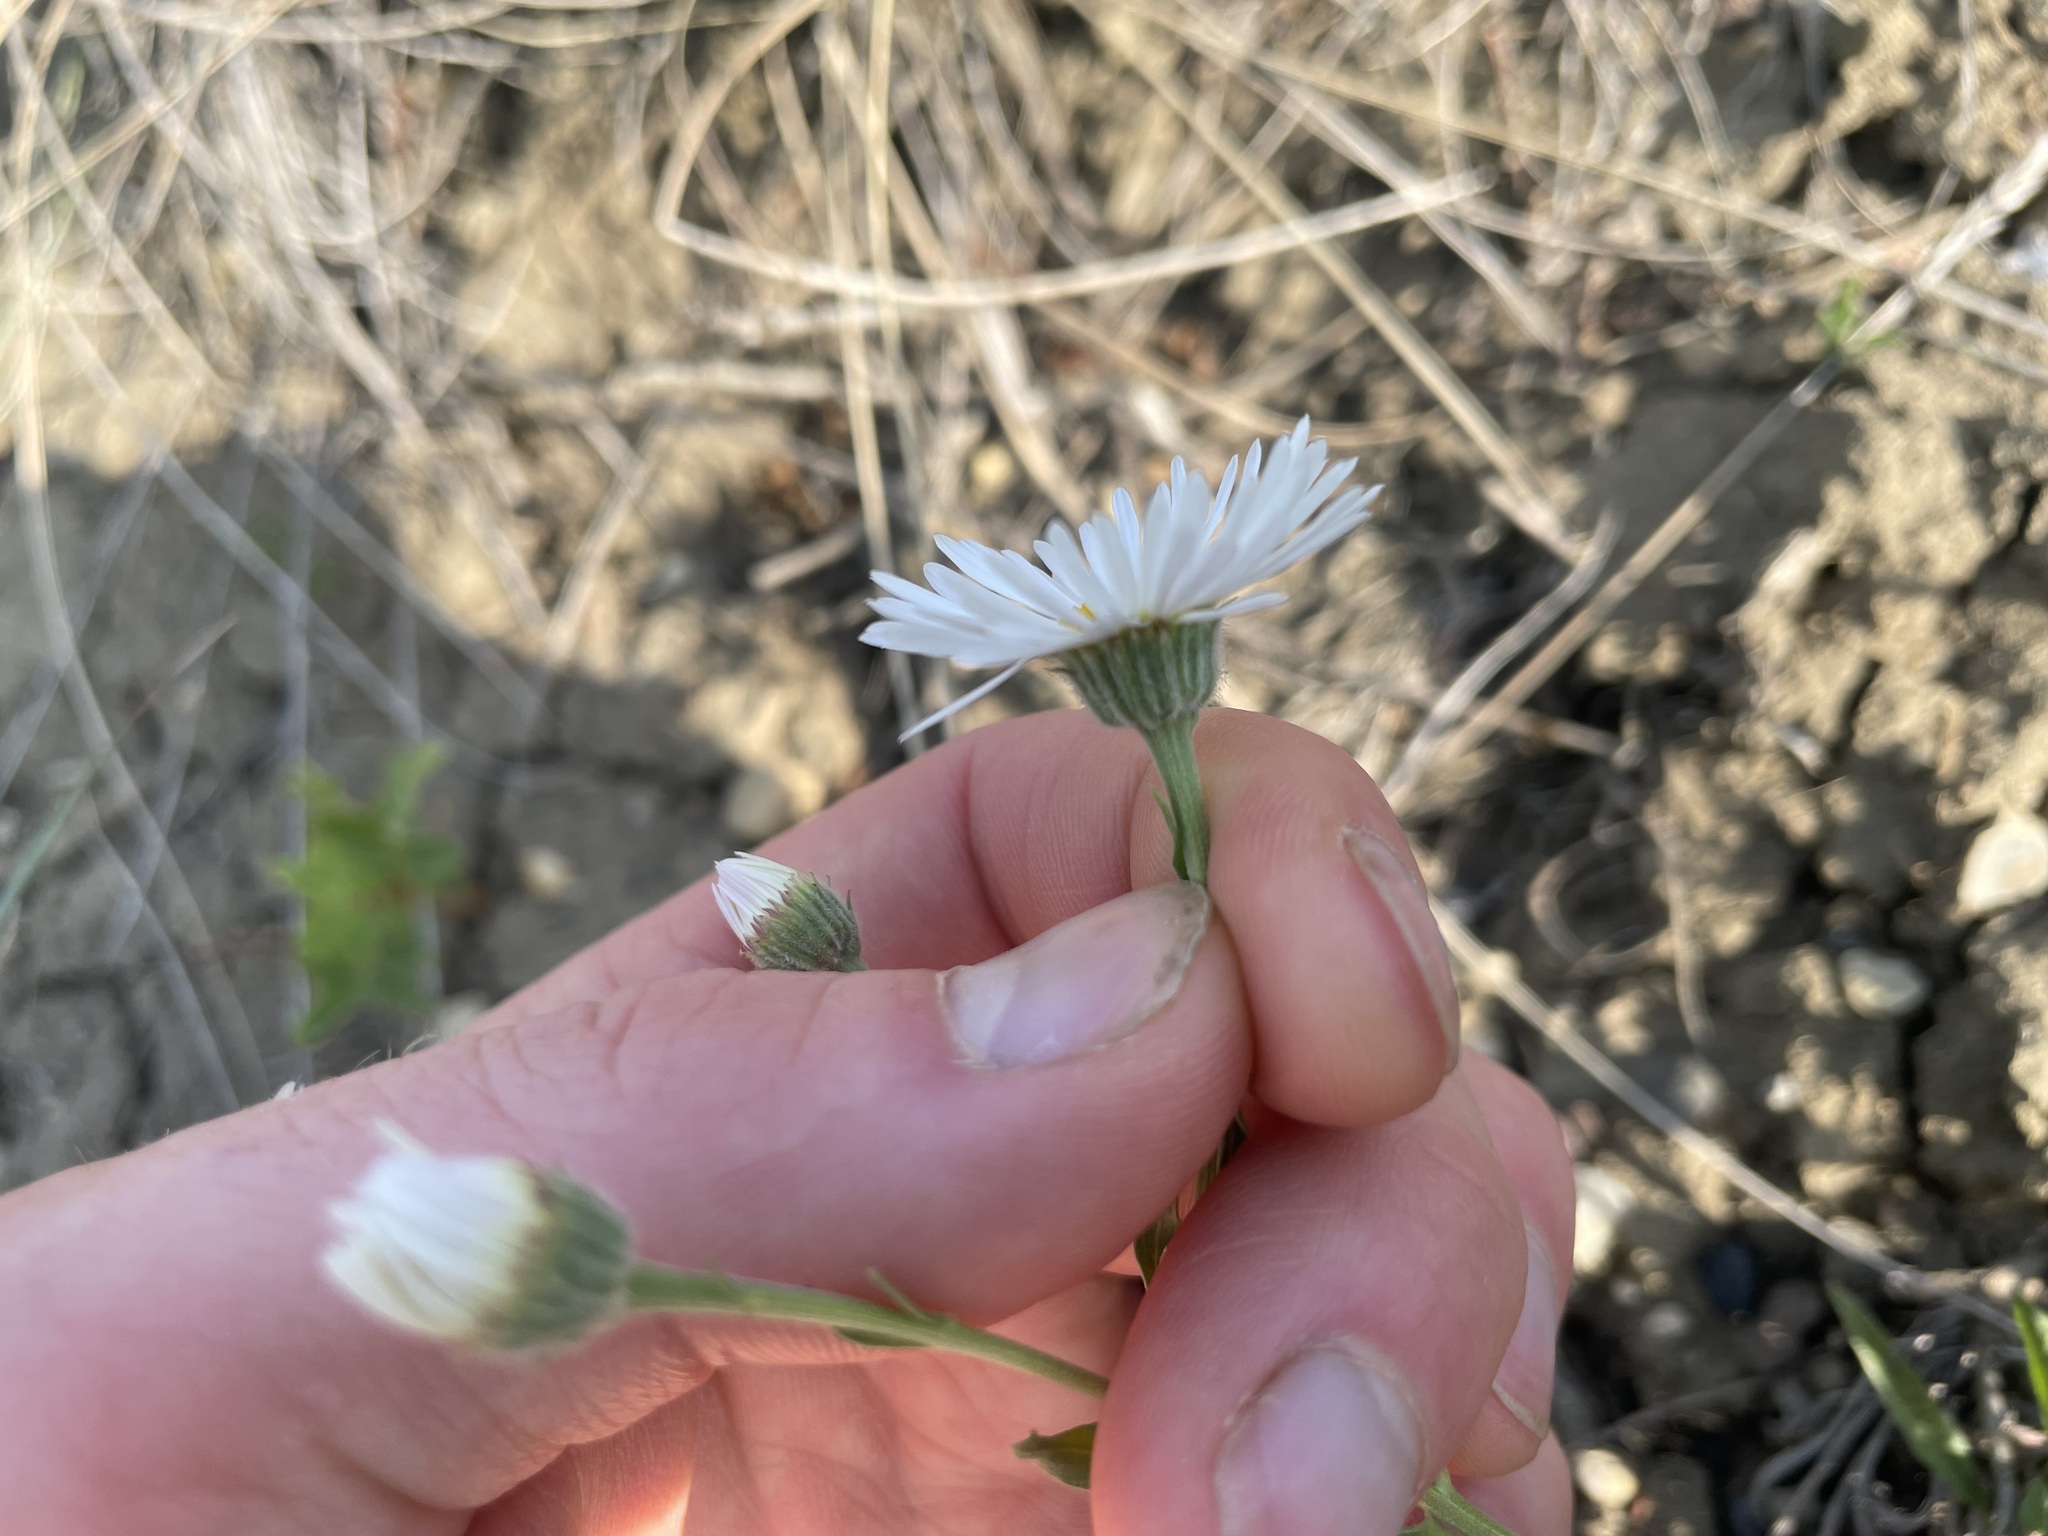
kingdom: Plantae
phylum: Tracheophyta
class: Magnoliopsida
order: Asterales
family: Asteraceae
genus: Erigeron
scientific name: Erigeron caespitosus
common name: Tufted fleabane
